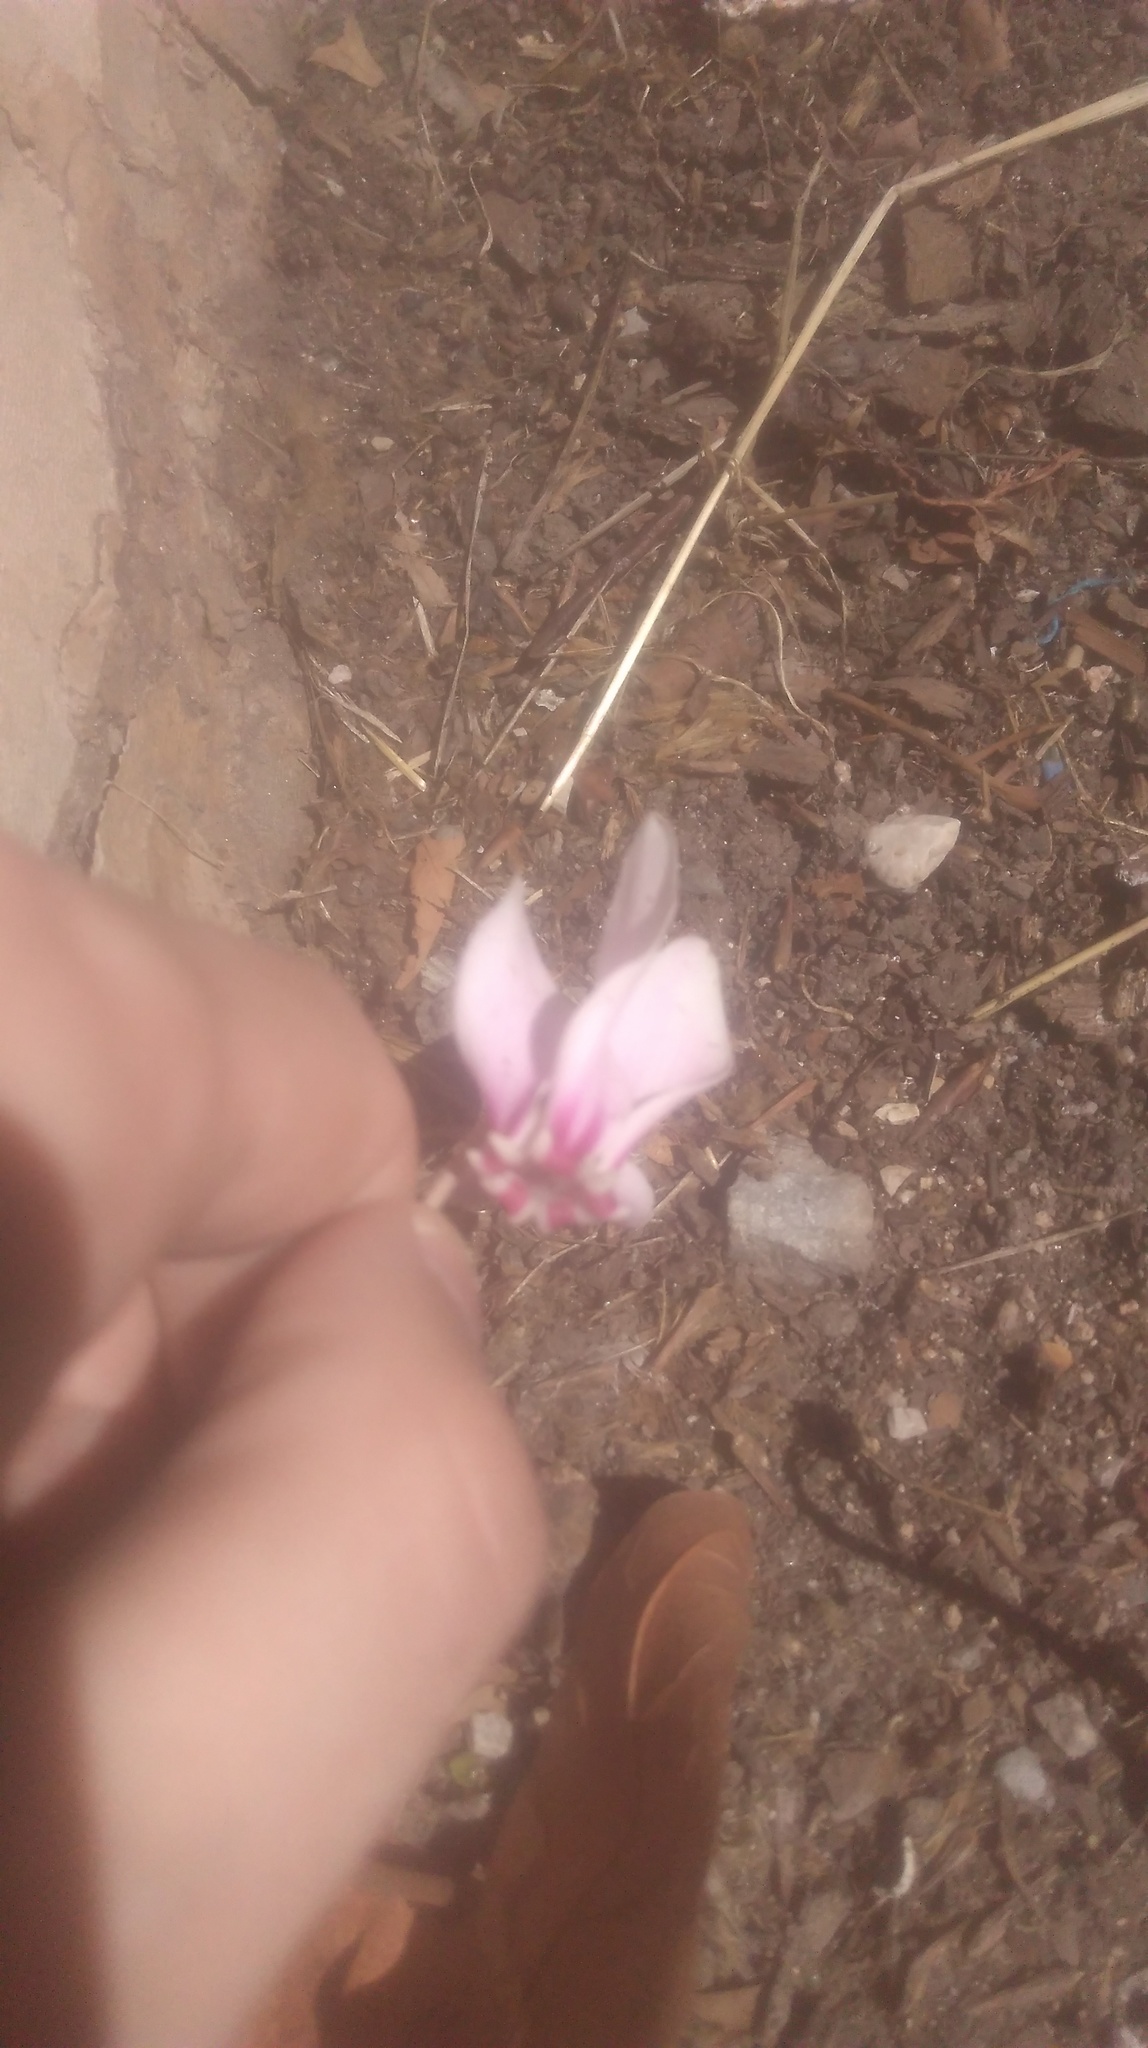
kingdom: Plantae
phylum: Tracheophyta
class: Magnoliopsida
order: Ericales
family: Primulaceae
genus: Cyclamen
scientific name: Cyclamen hederifolium
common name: Sowbread
